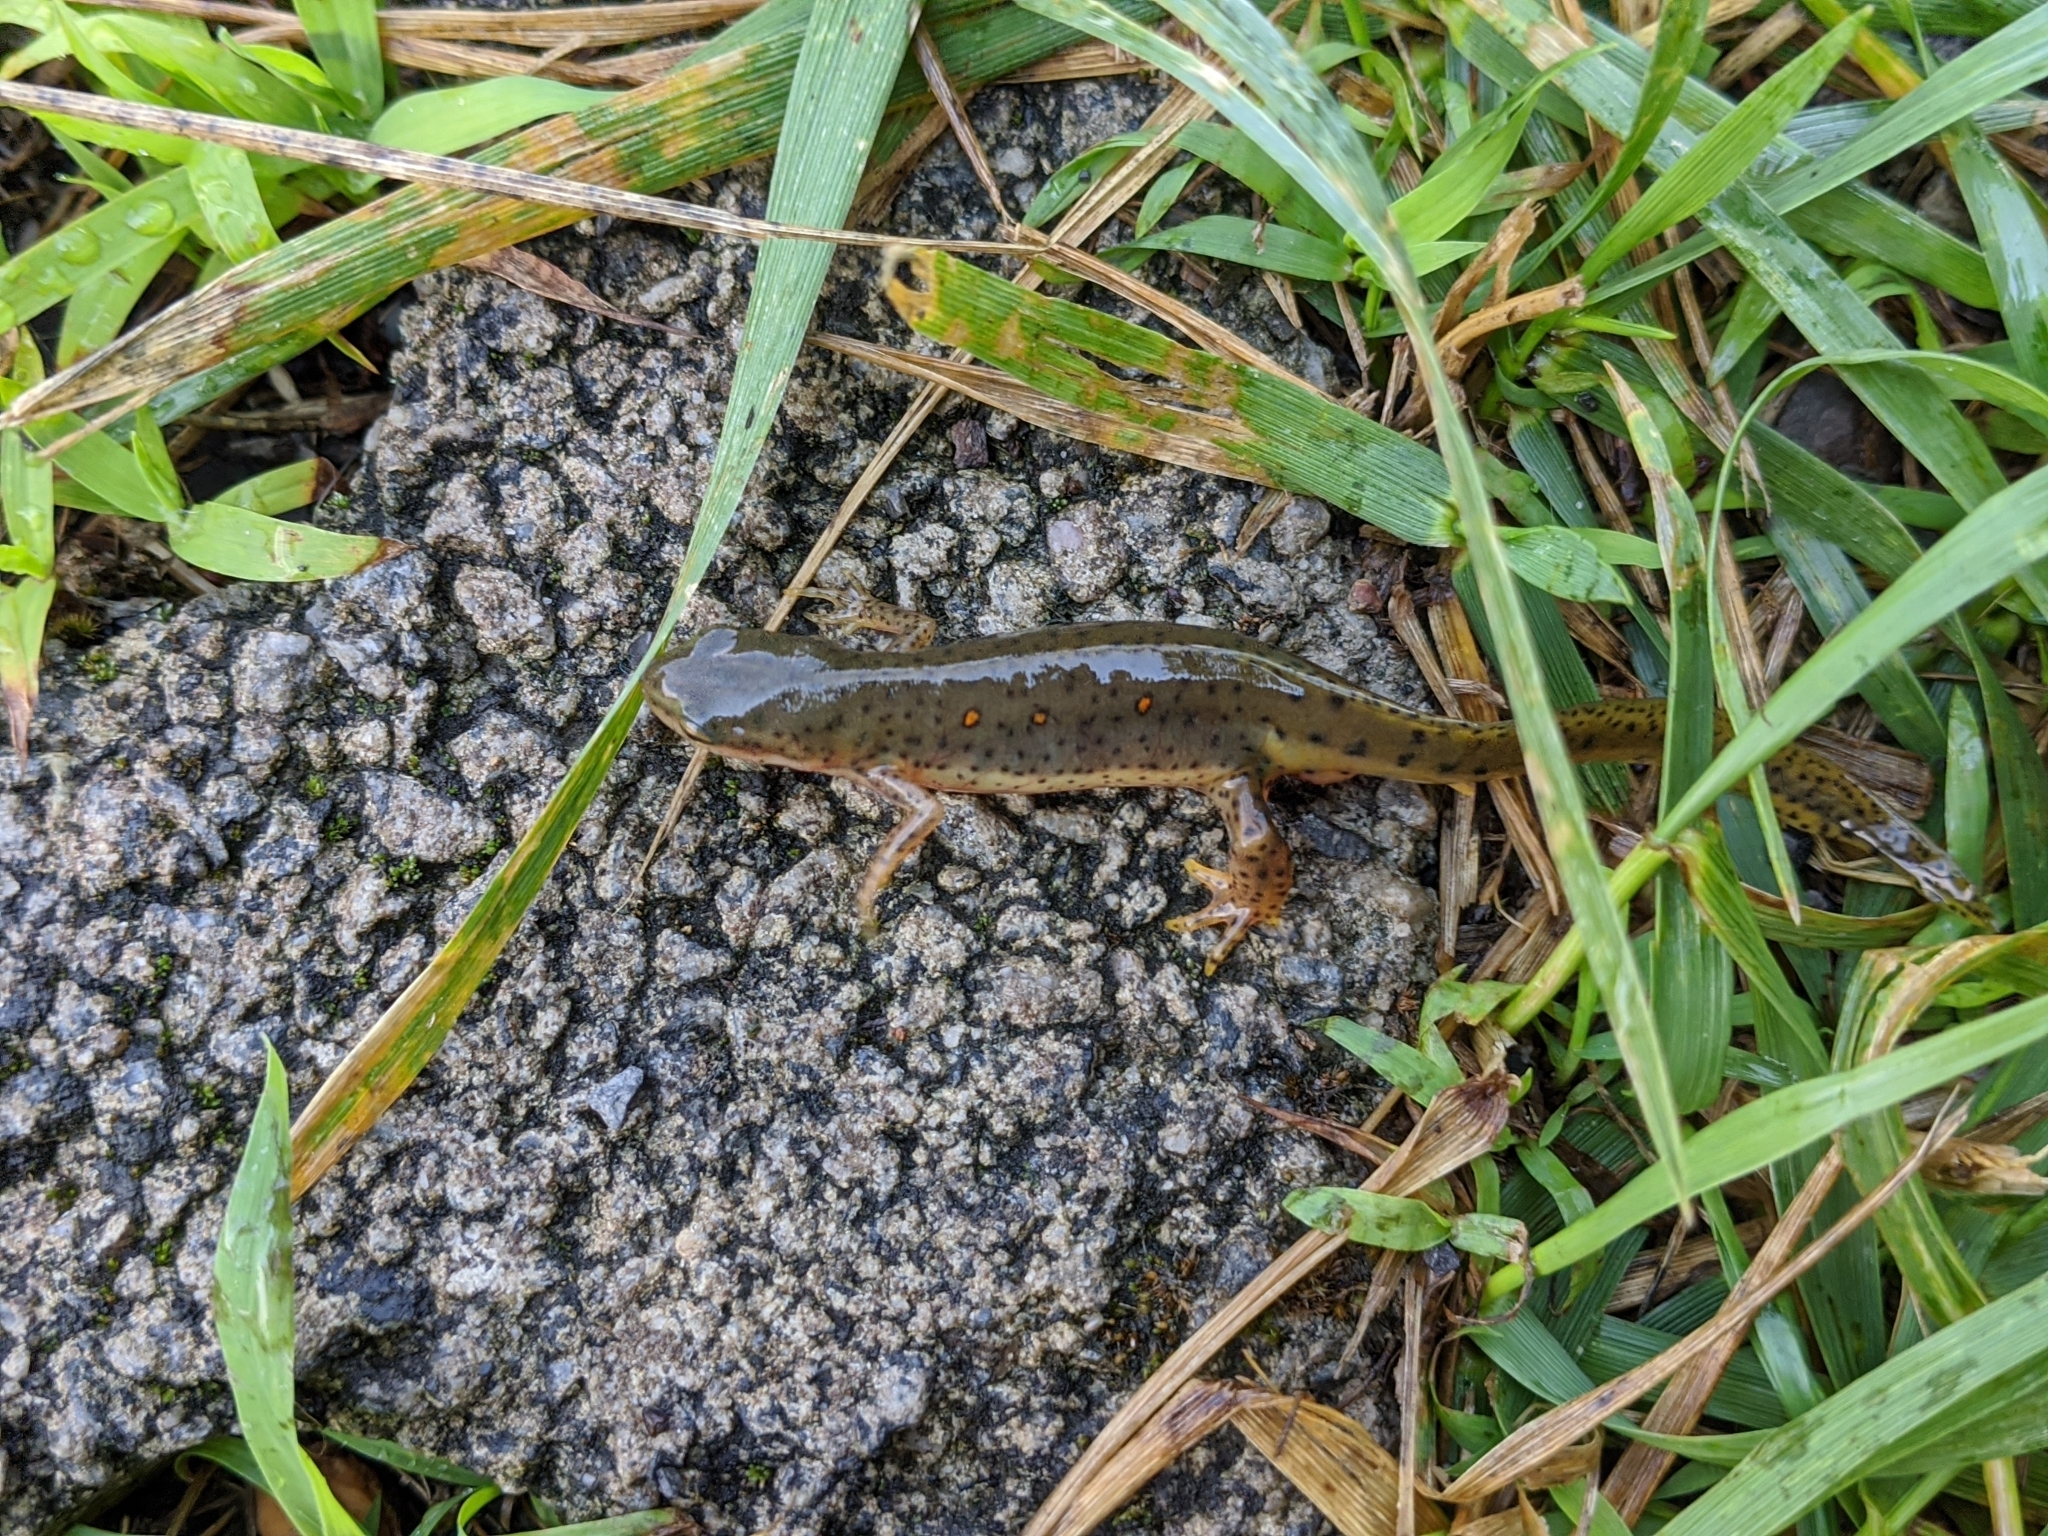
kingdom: Animalia
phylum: Chordata
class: Amphibia
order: Caudata
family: Salamandridae
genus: Notophthalmus
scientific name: Notophthalmus viridescens
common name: Eastern newt
